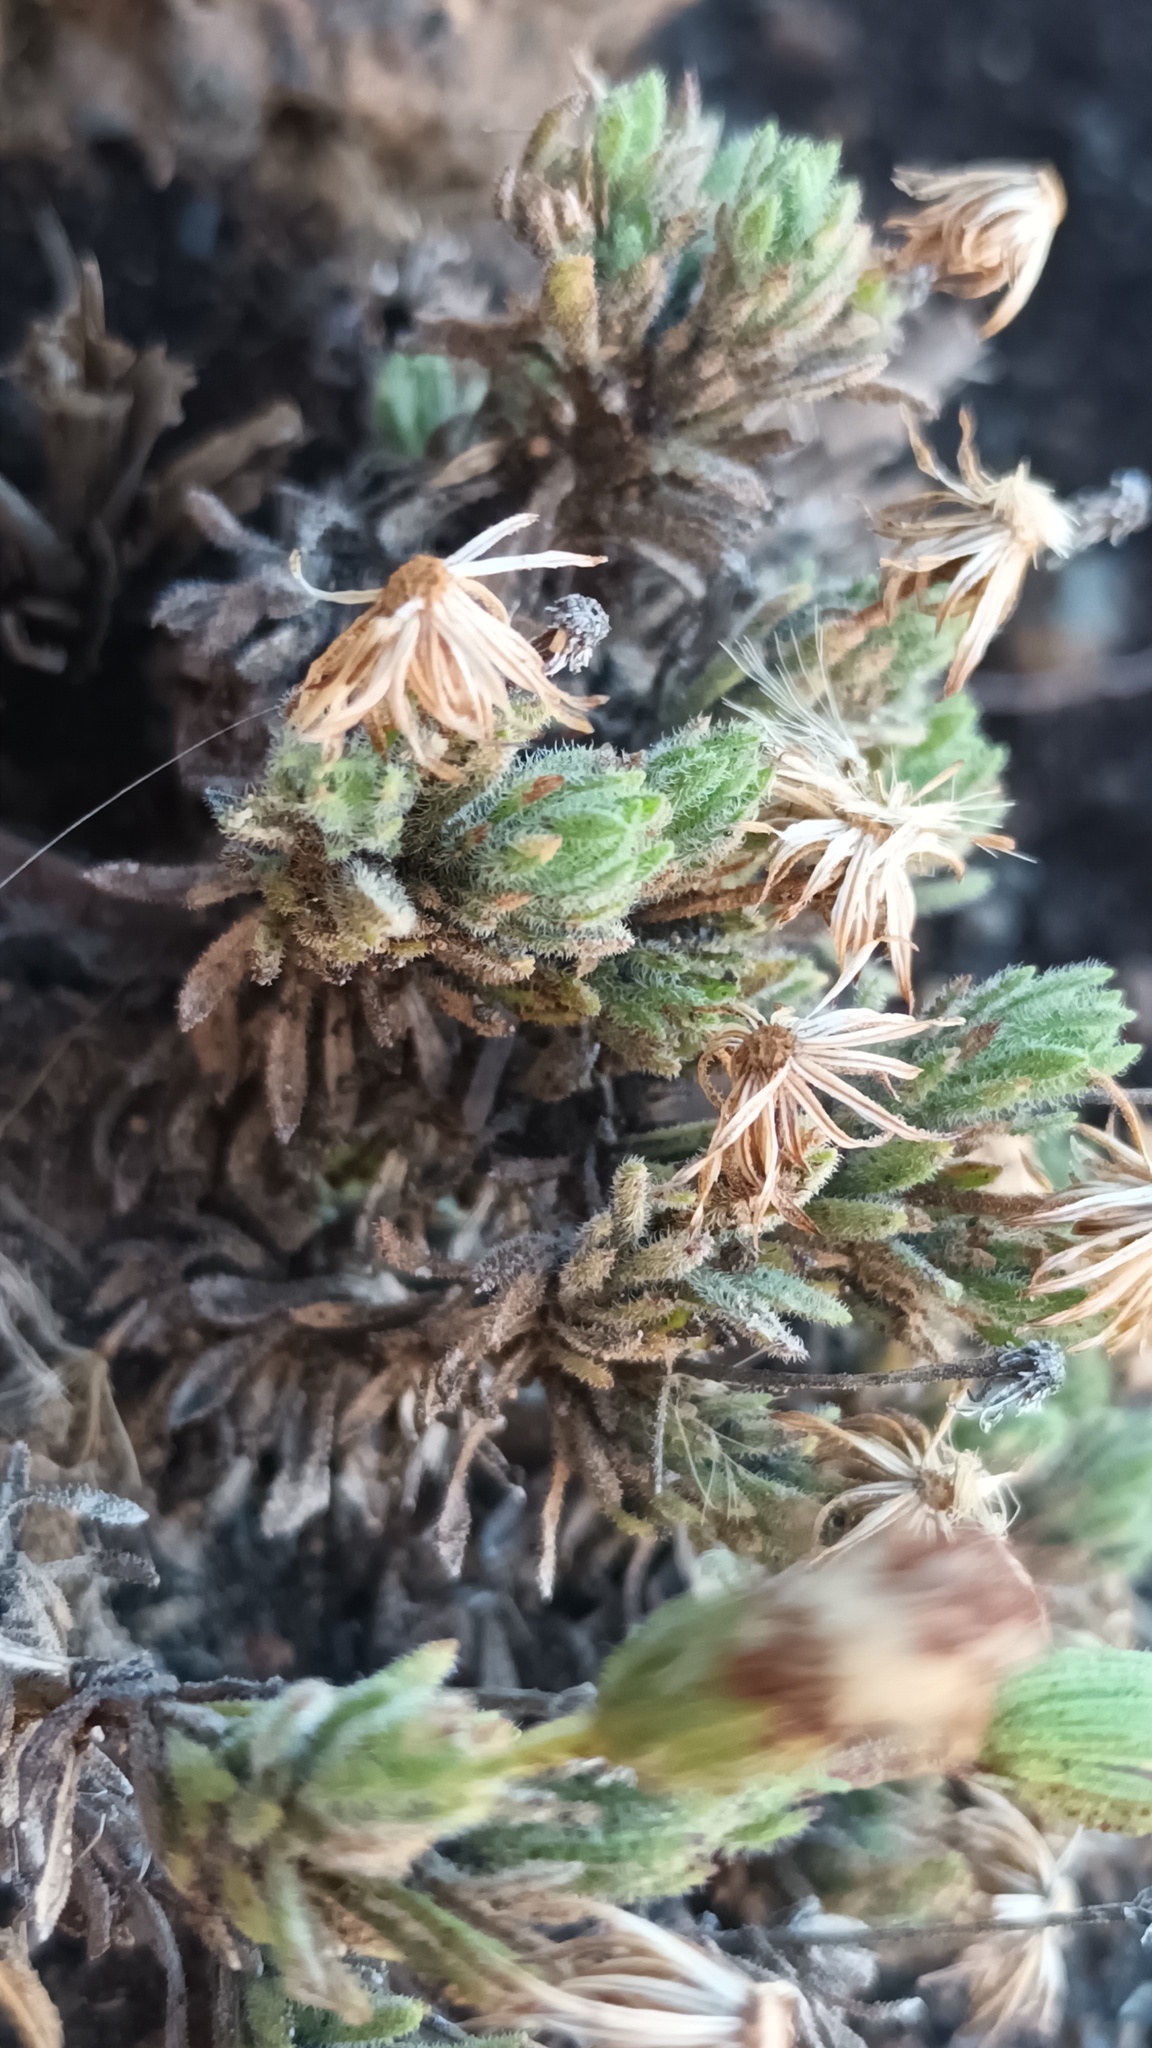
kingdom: Plantae
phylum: Tracheophyta
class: Magnoliopsida
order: Asterales
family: Asteraceae
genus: Tetramolopium
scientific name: Tetramolopium humile
